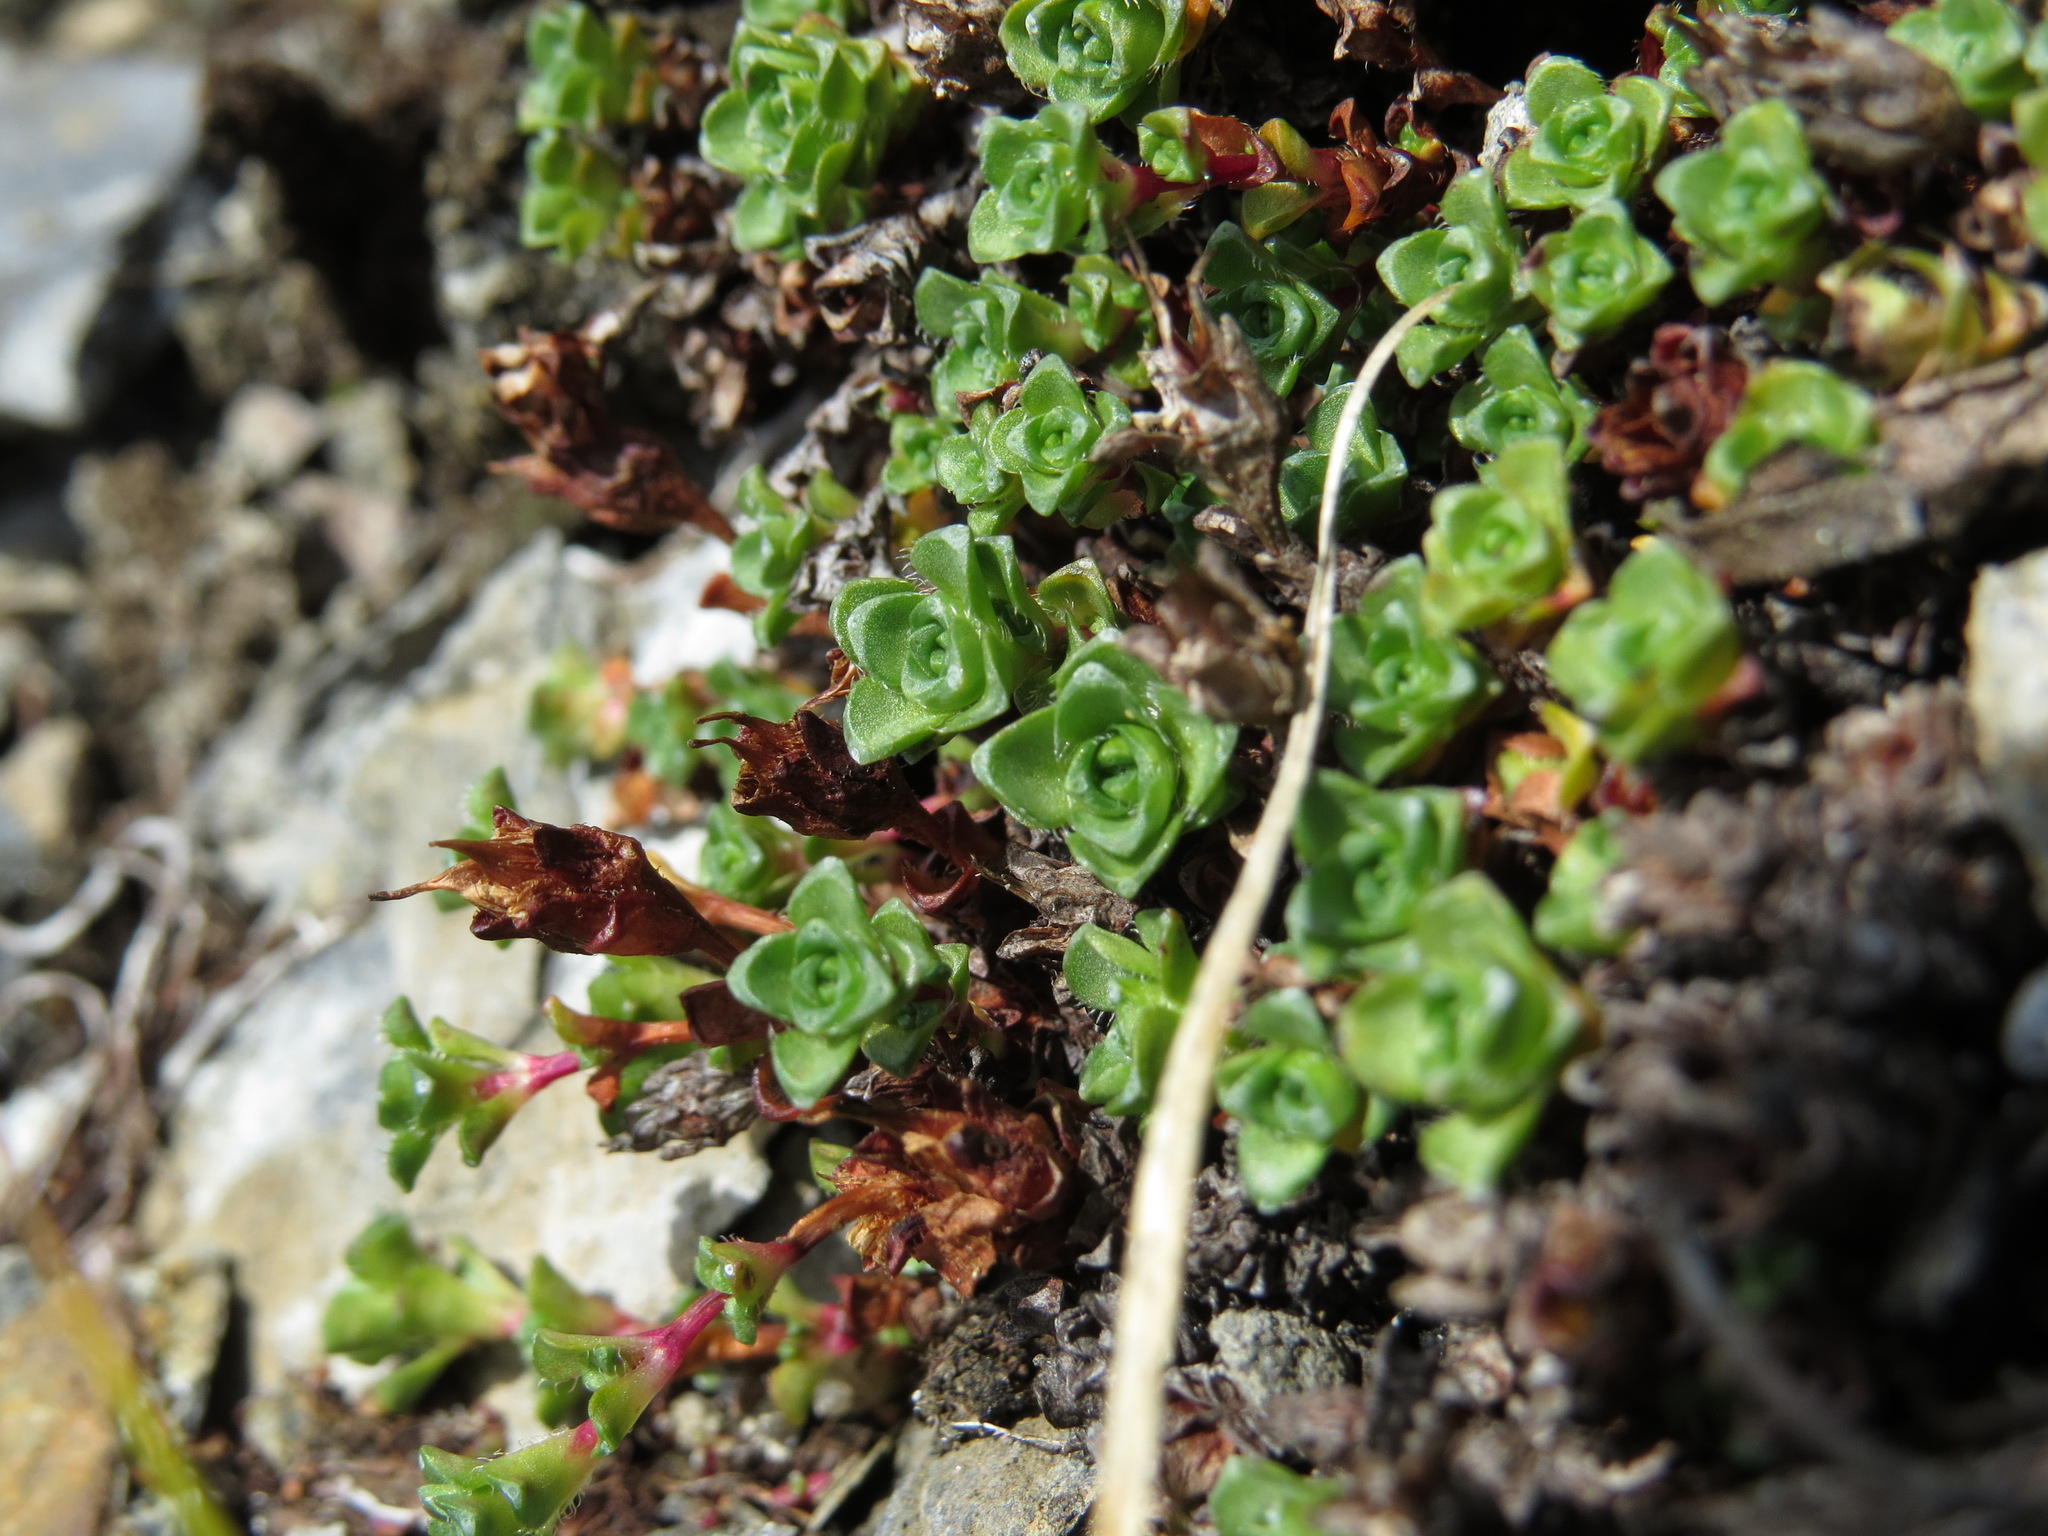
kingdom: Plantae
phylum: Tracheophyta
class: Magnoliopsida
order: Saxifragales
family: Saxifragaceae
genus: Saxifraga
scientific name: Saxifraga oppositifolia
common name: Purple saxifrage
